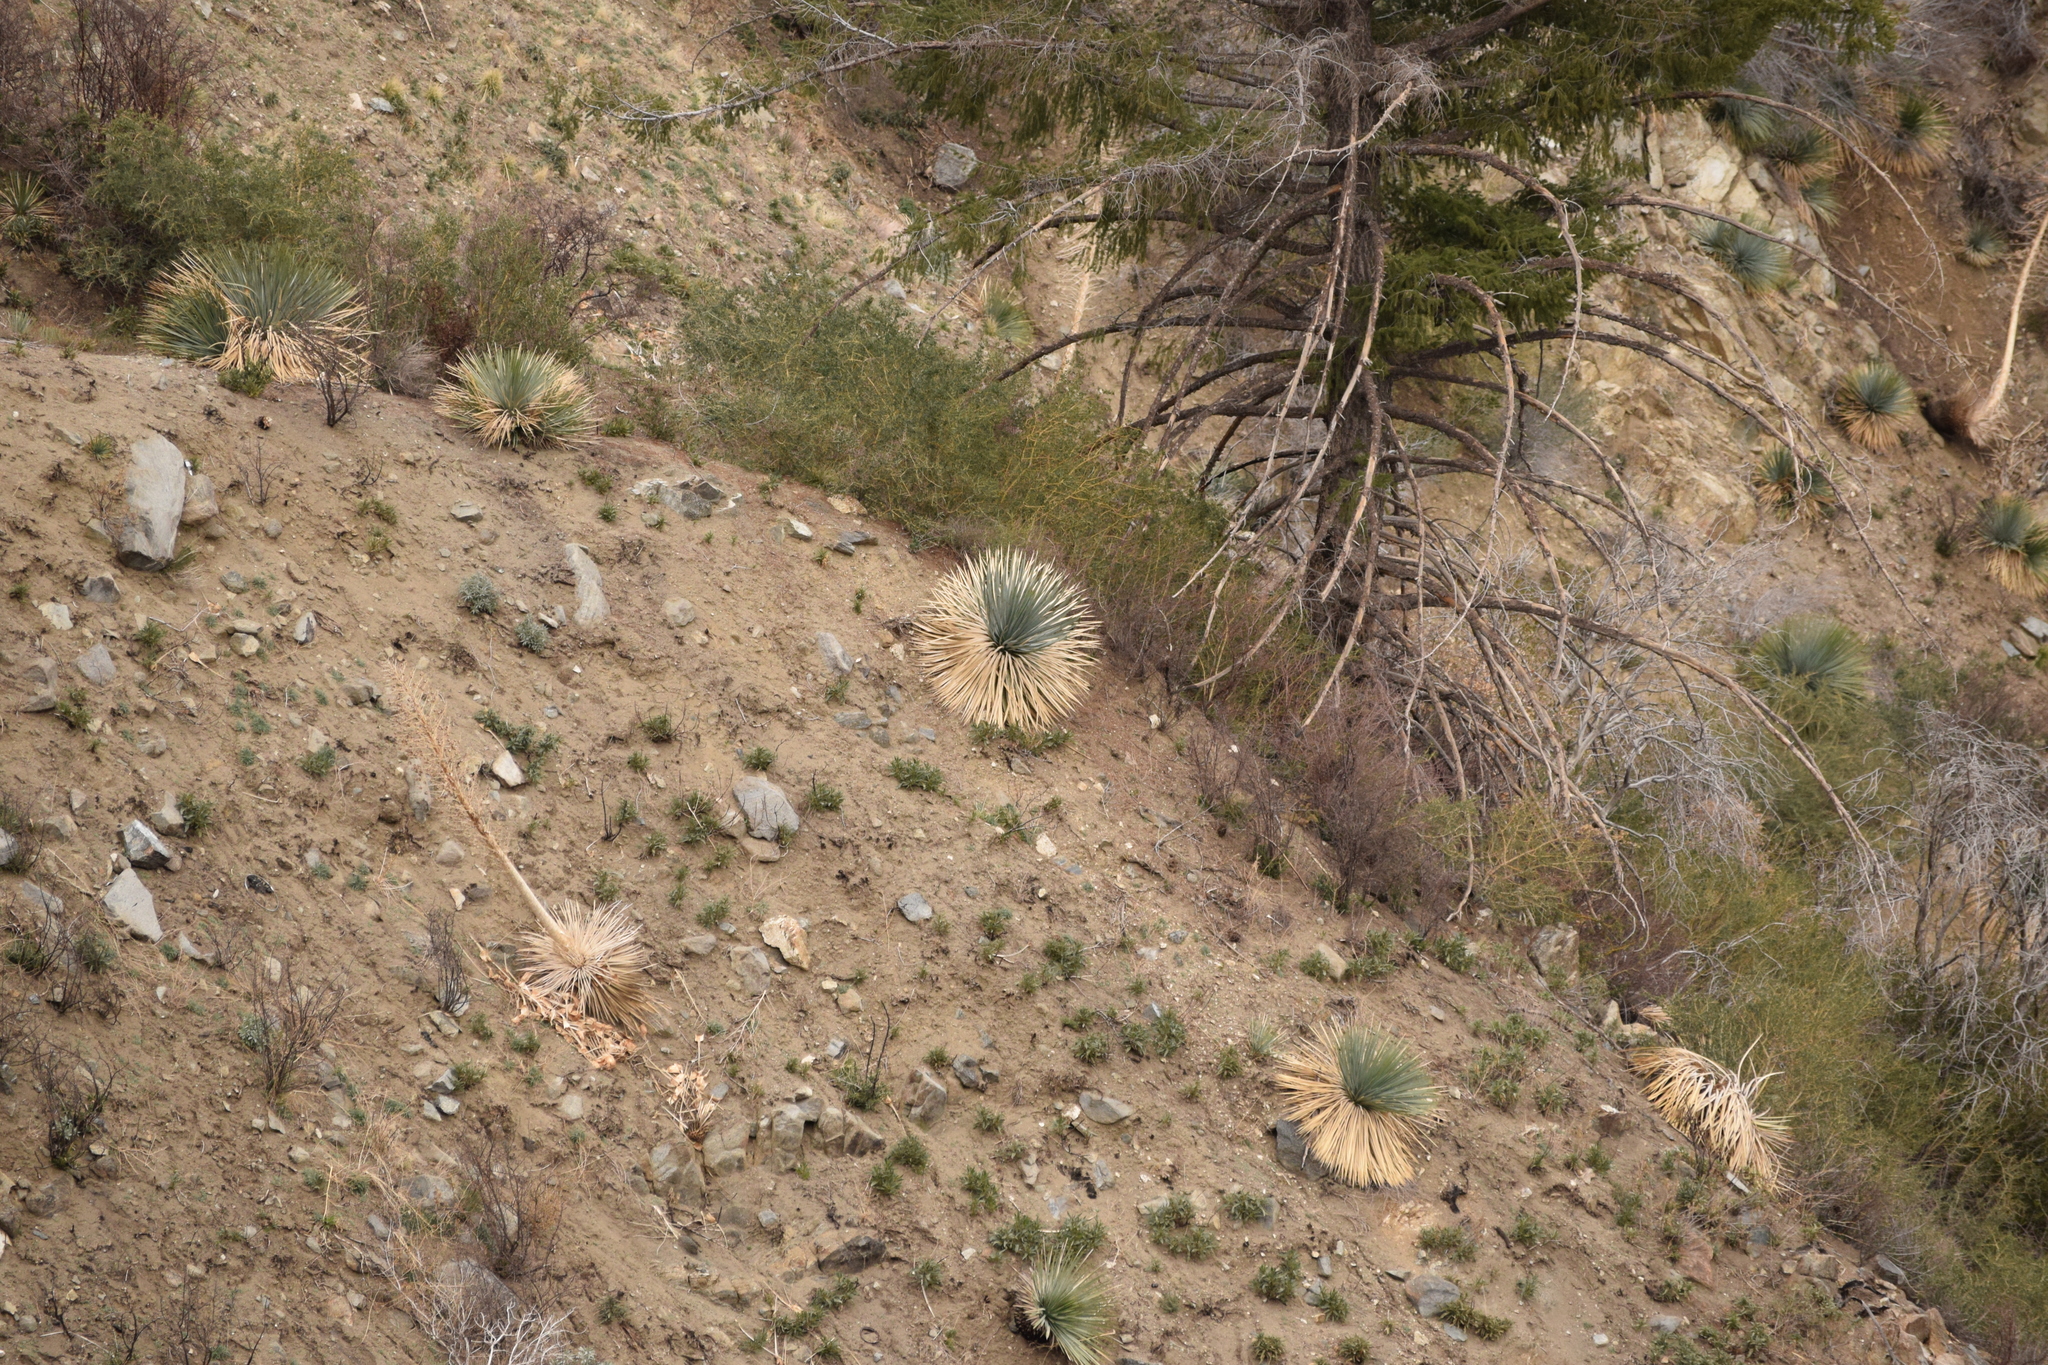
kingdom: Plantae
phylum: Tracheophyta
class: Liliopsida
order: Asparagales
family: Asparagaceae
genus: Hesperoyucca
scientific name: Hesperoyucca whipplei
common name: Our lord's-candle
